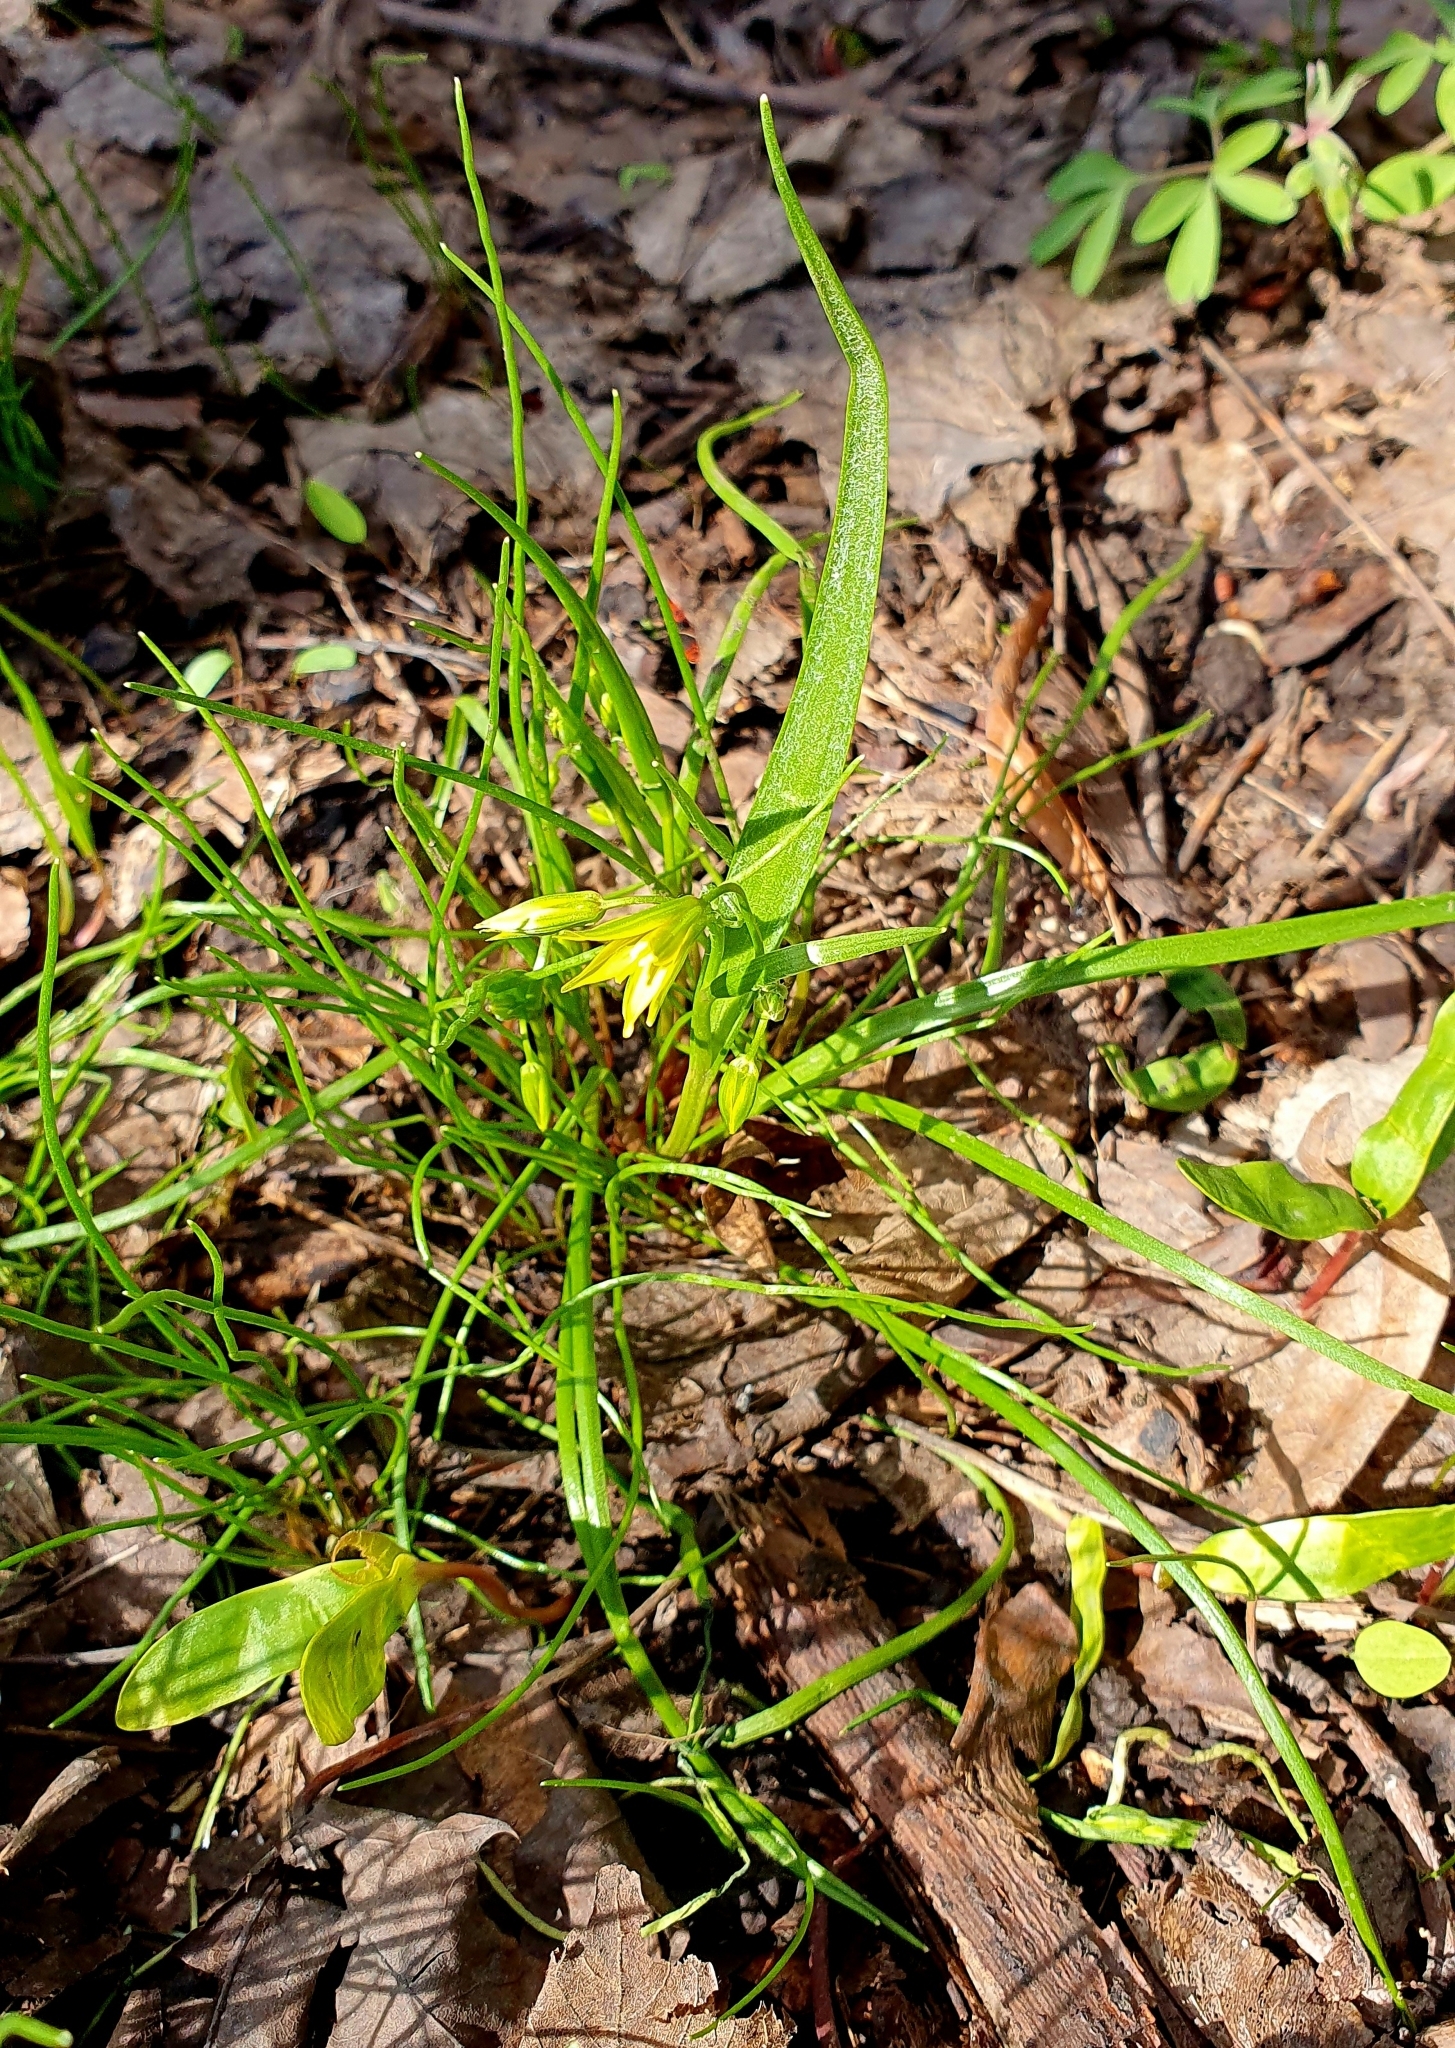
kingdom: Plantae
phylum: Tracheophyta
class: Liliopsida
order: Liliales
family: Liliaceae
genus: Gagea
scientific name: Gagea minima
